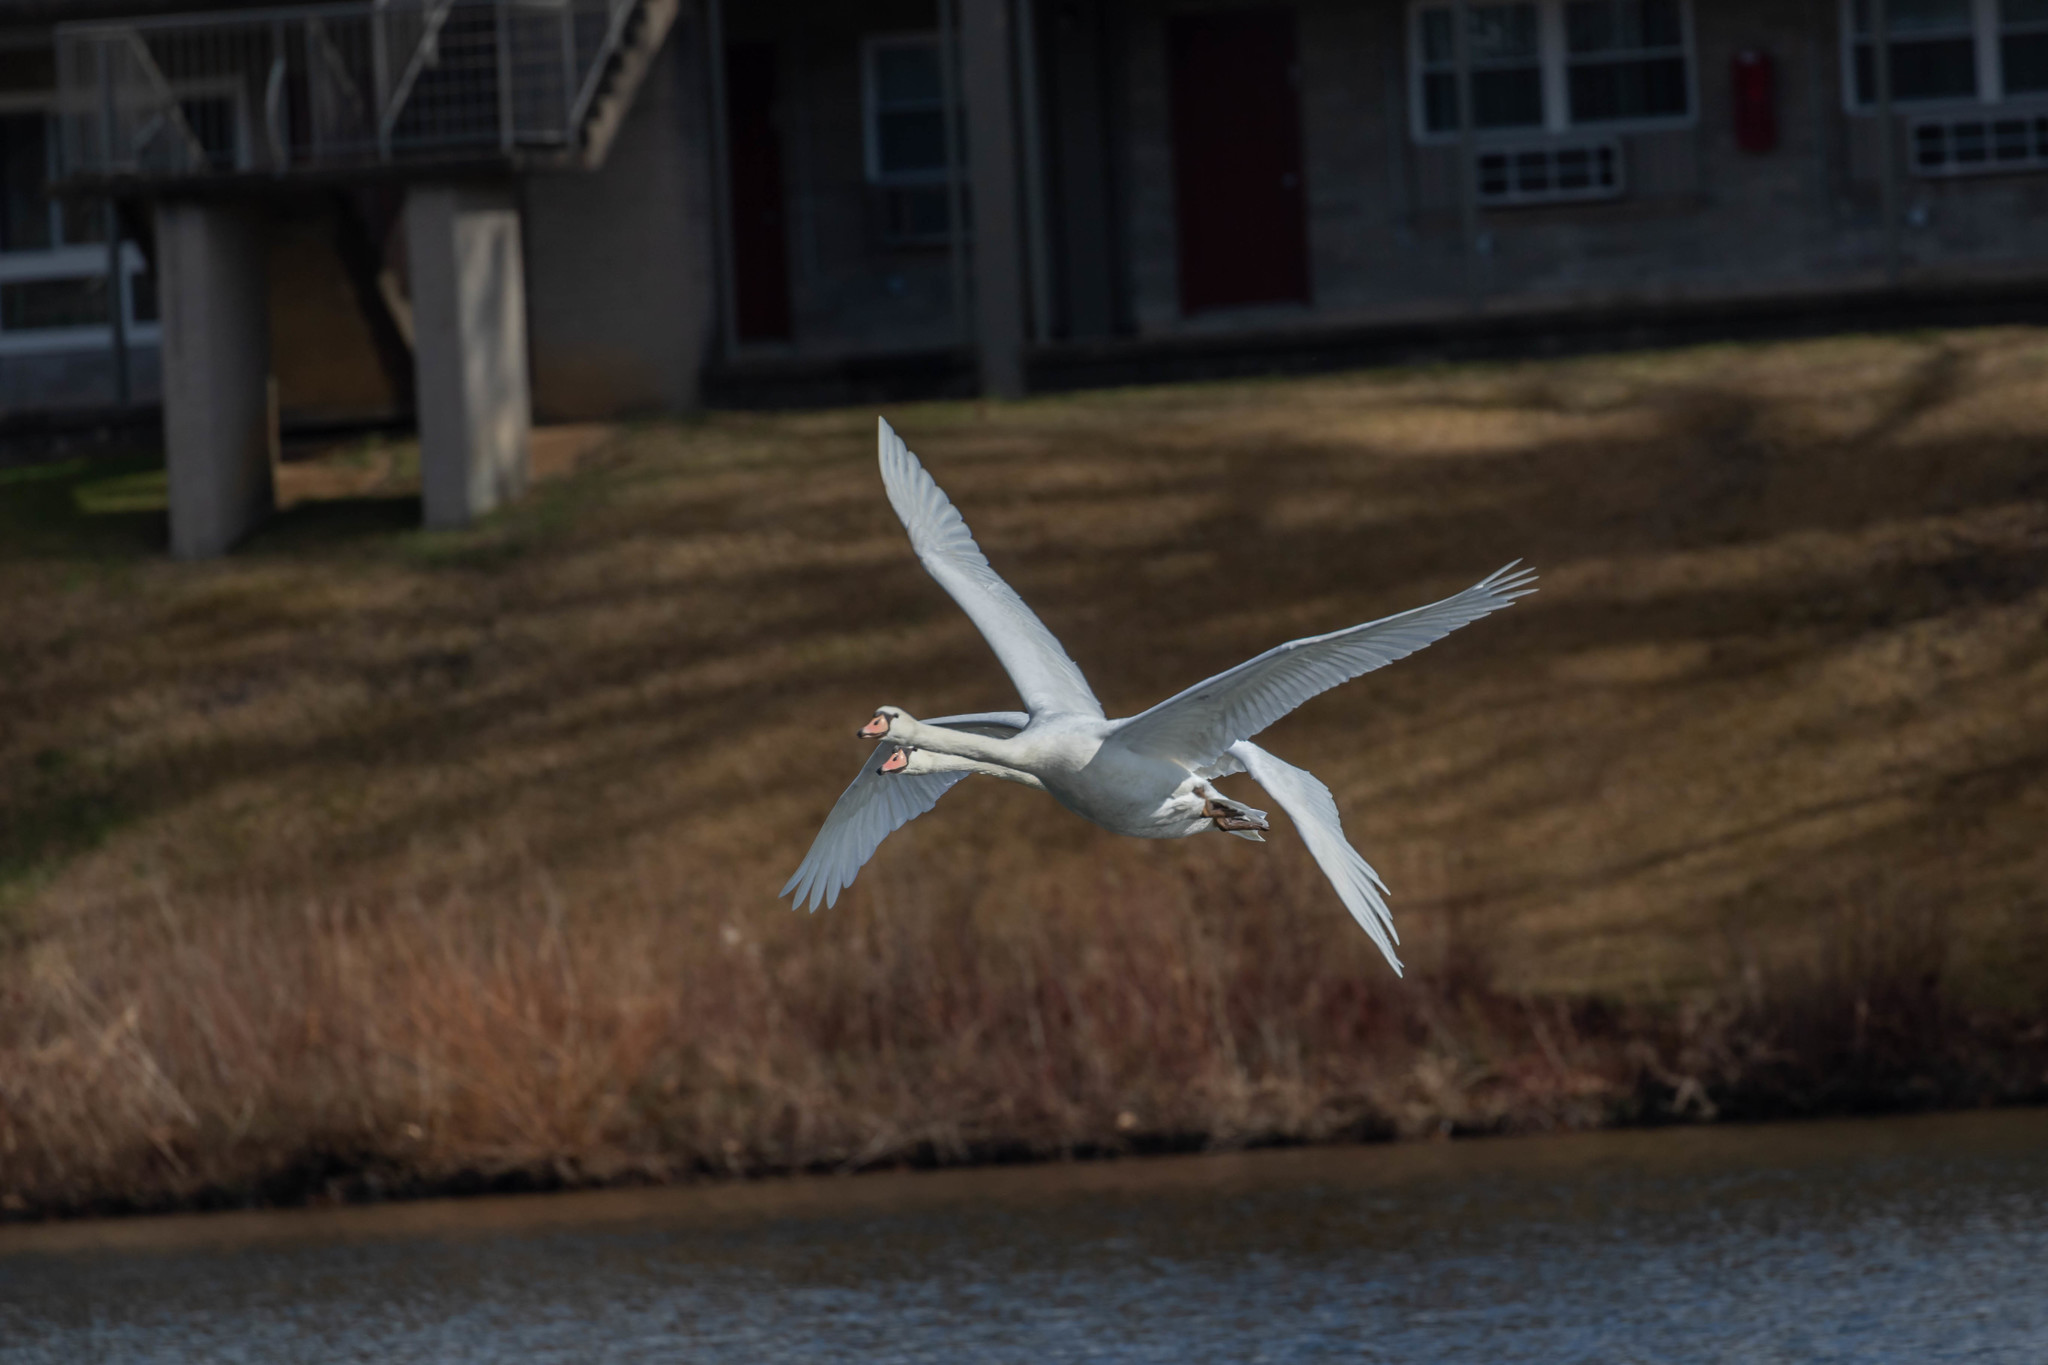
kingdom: Animalia
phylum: Chordata
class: Aves
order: Anseriformes
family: Anatidae
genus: Cygnus
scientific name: Cygnus olor
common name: Mute swan
